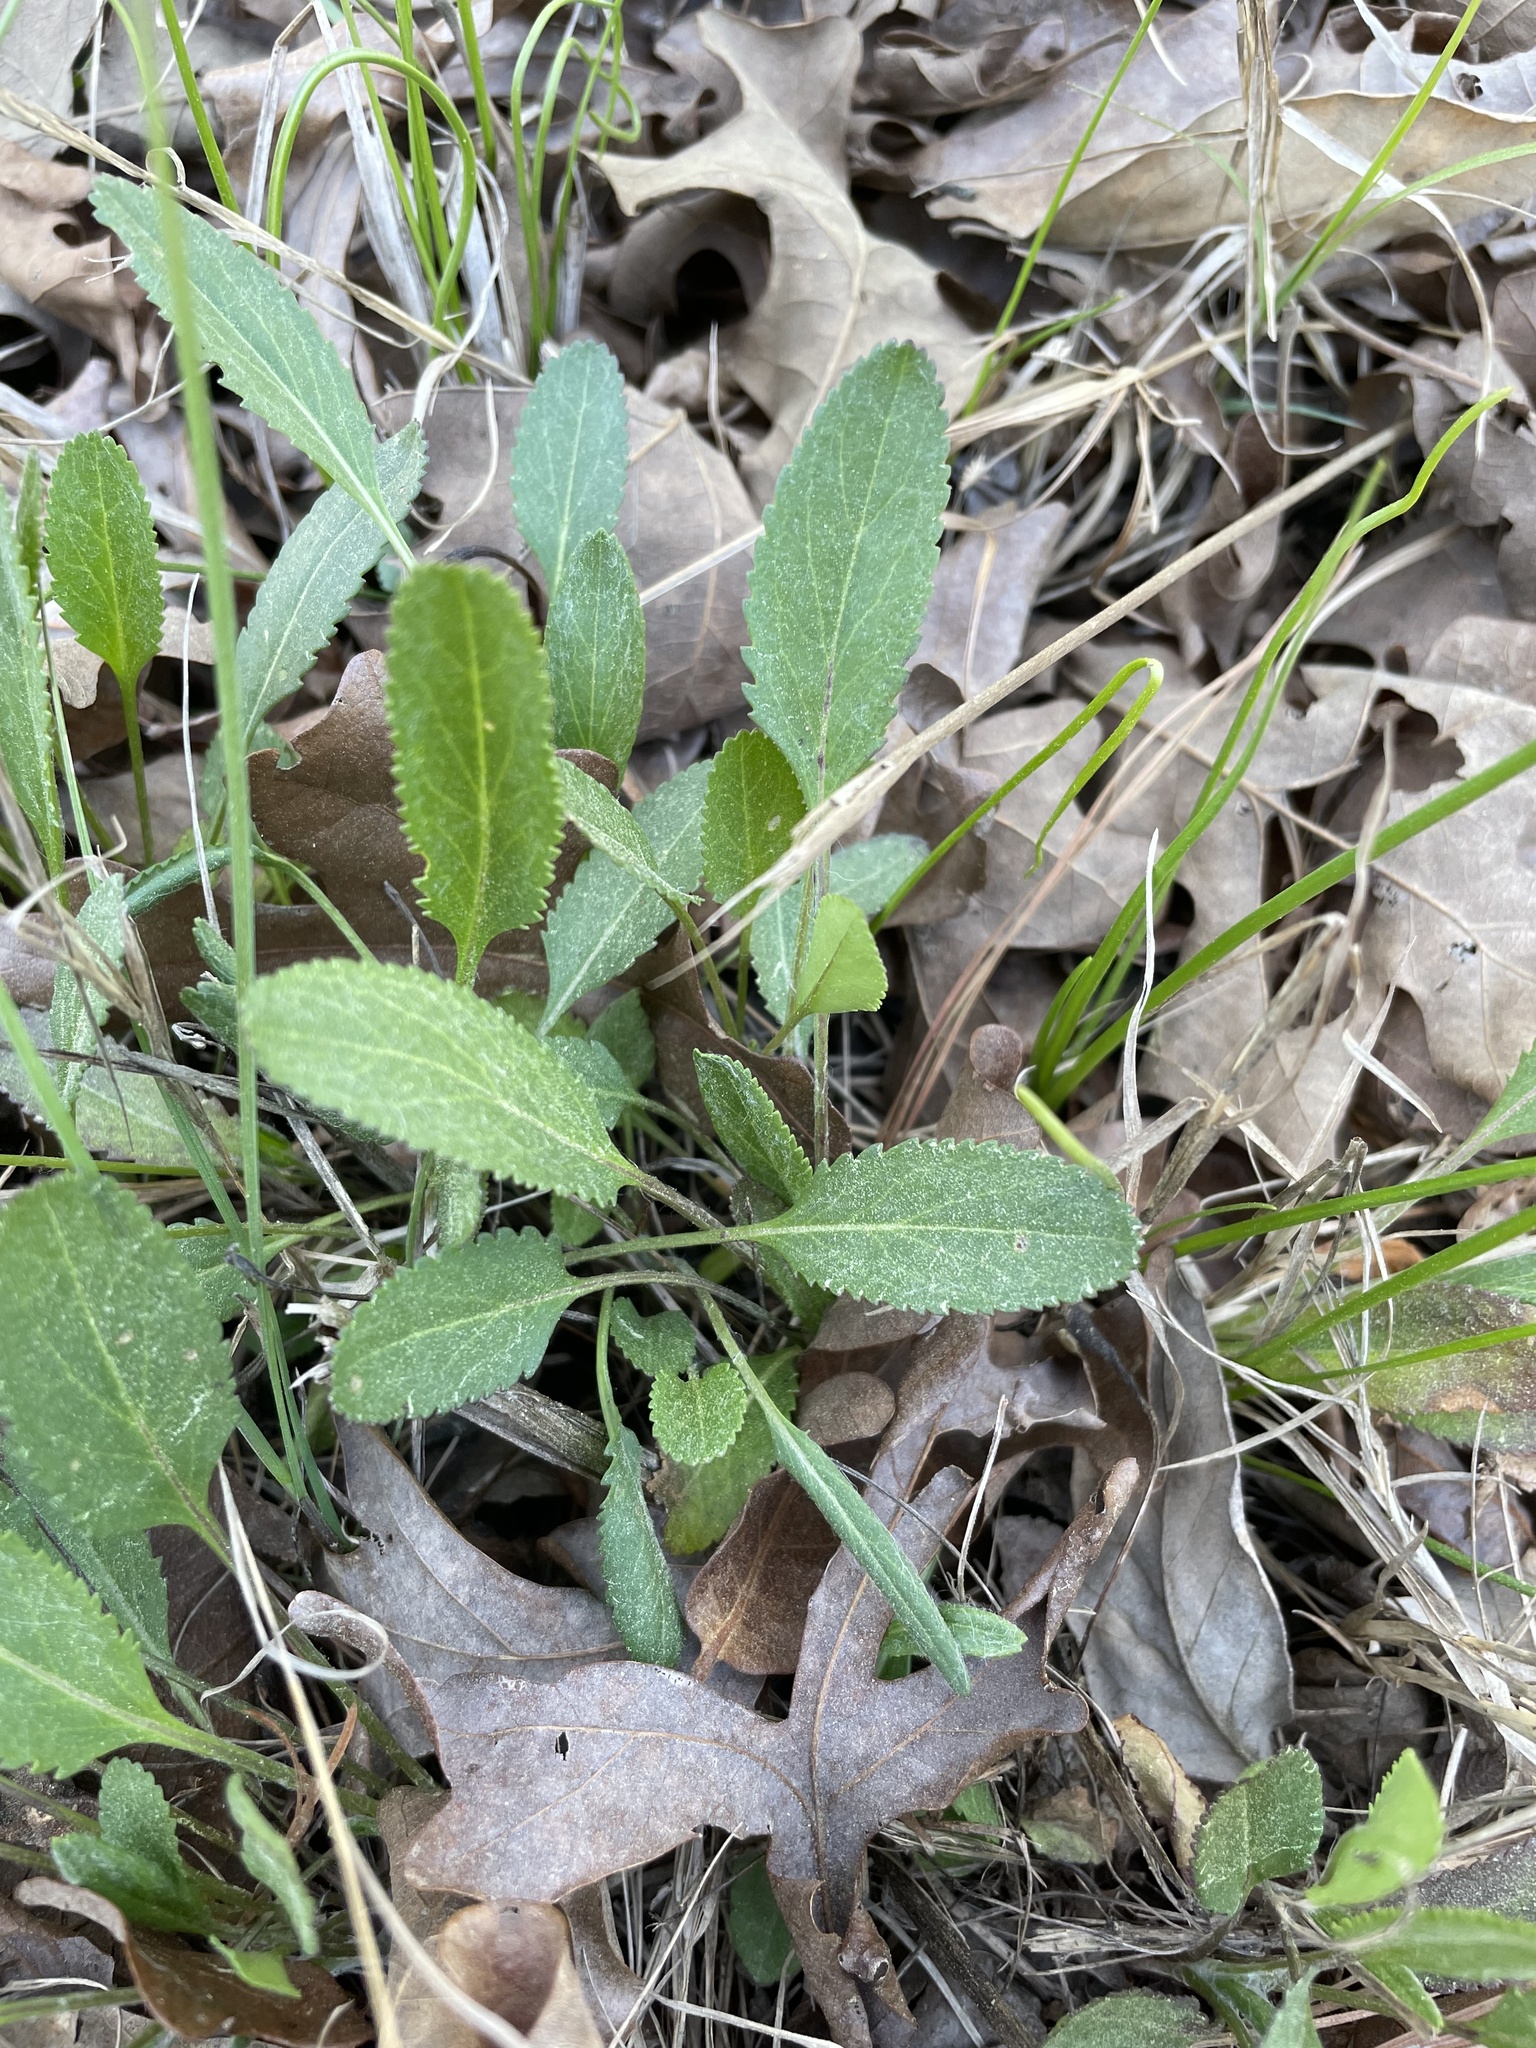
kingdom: Plantae
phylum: Tracheophyta
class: Magnoliopsida
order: Asterales
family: Asteraceae
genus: Packera
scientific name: Packera anonyma
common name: Small ragwort
